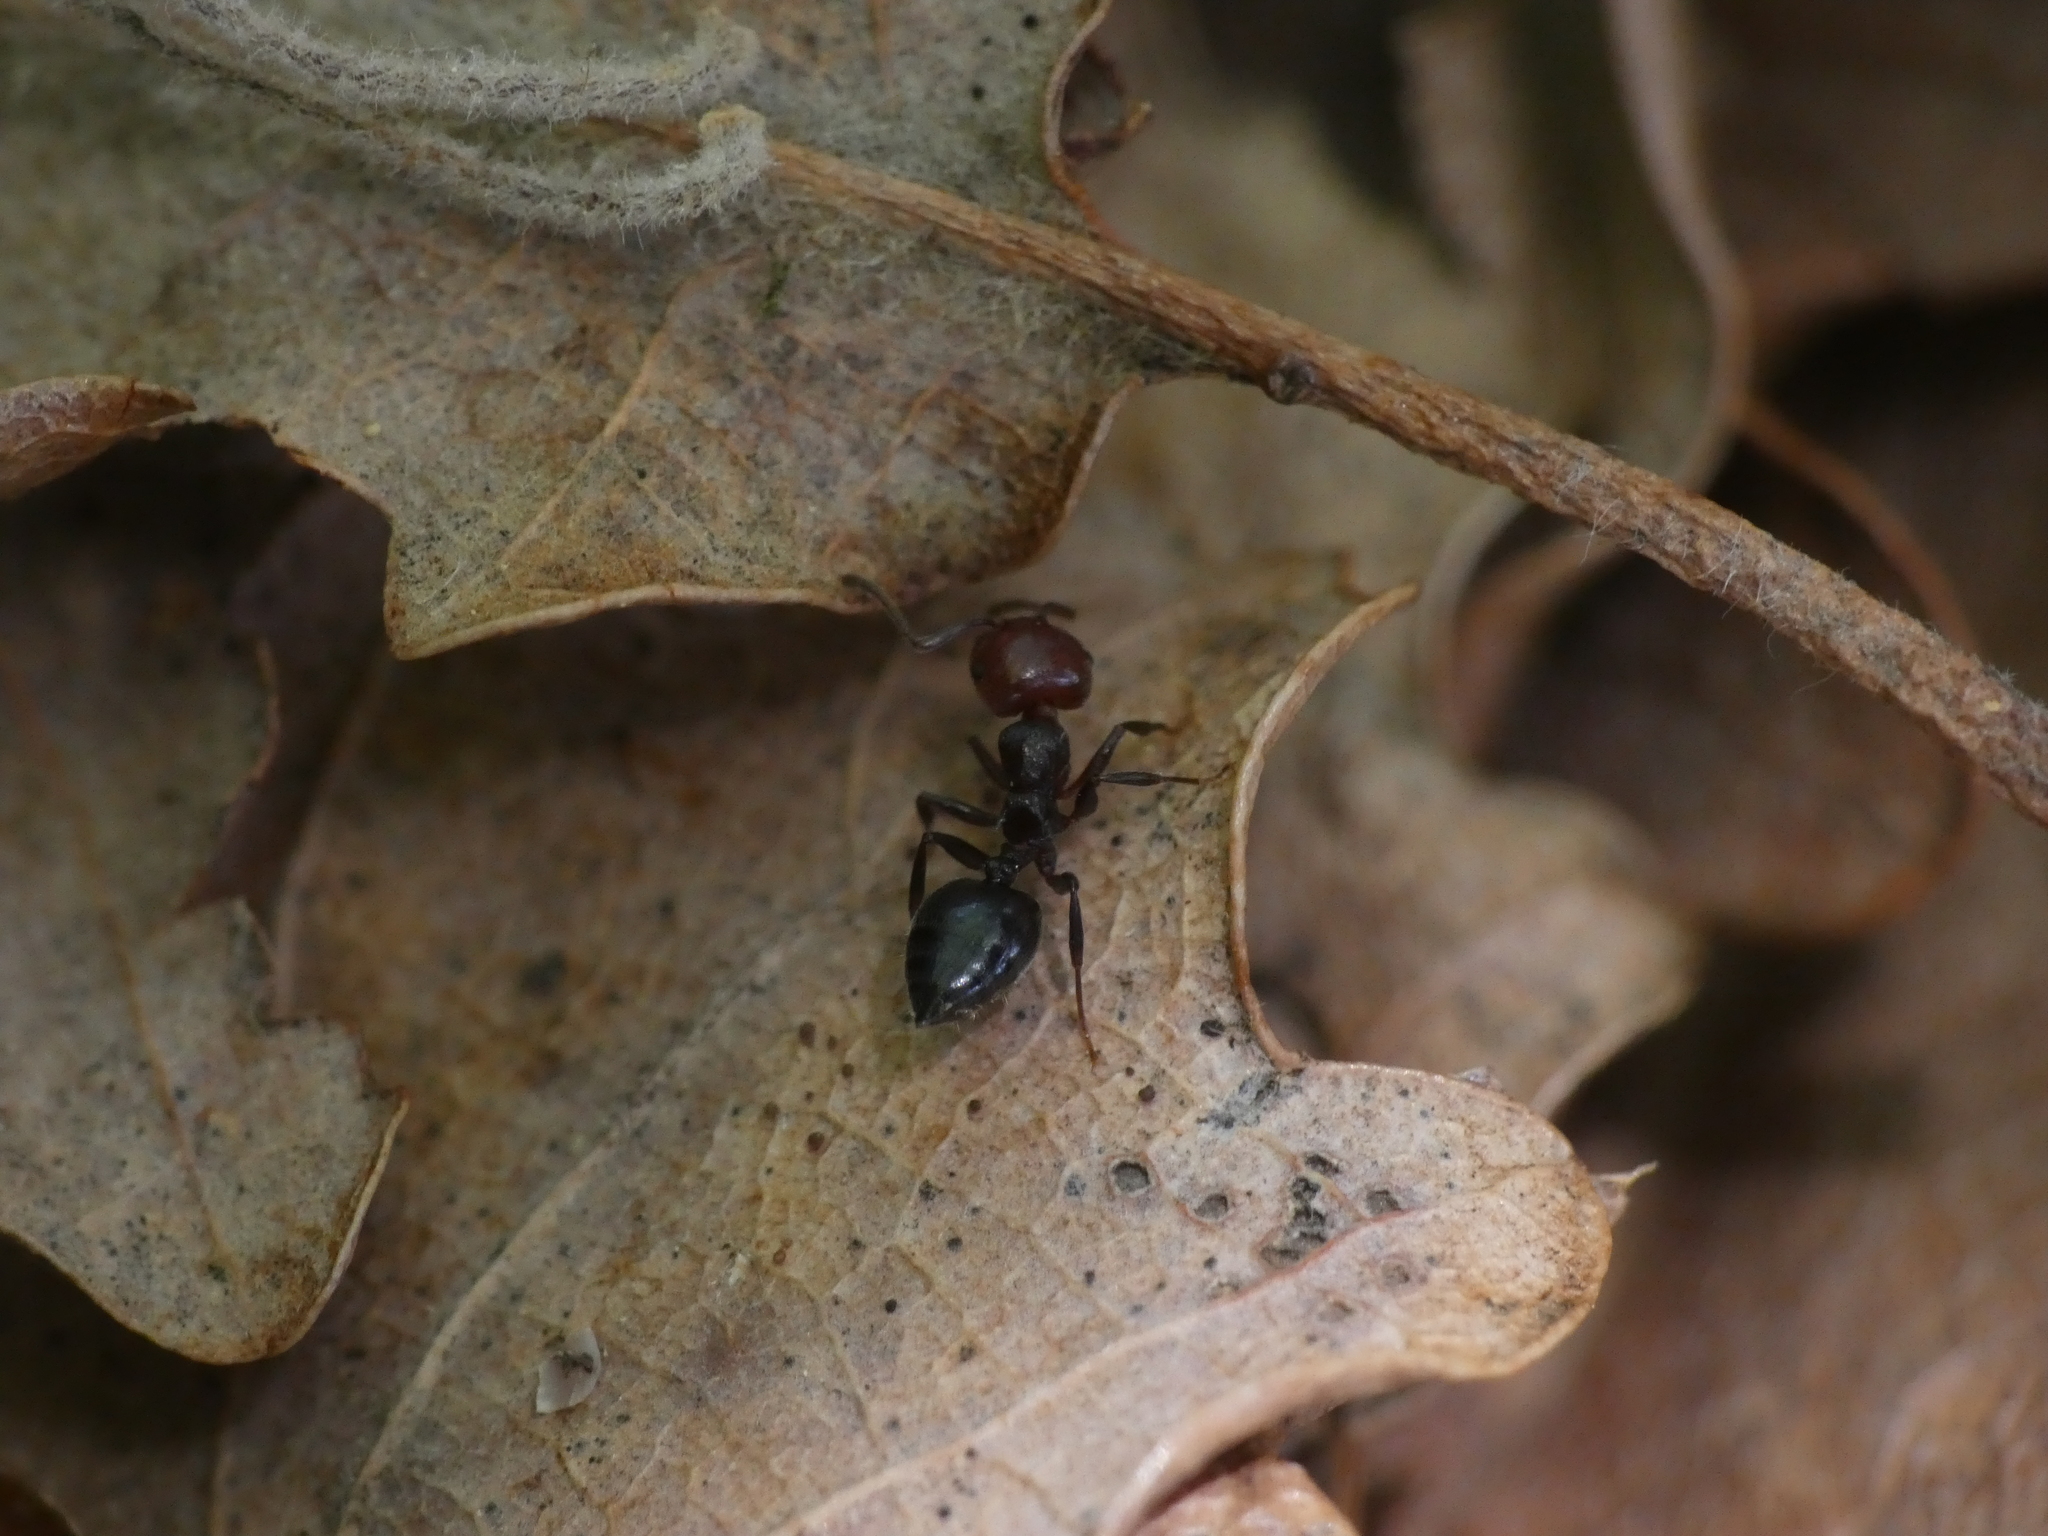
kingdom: Animalia
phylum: Arthropoda
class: Insecta
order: Hymenoptera
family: Formicidae
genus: Crematogaster
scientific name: Crematogaster scutellaris
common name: Fourmi du liège
